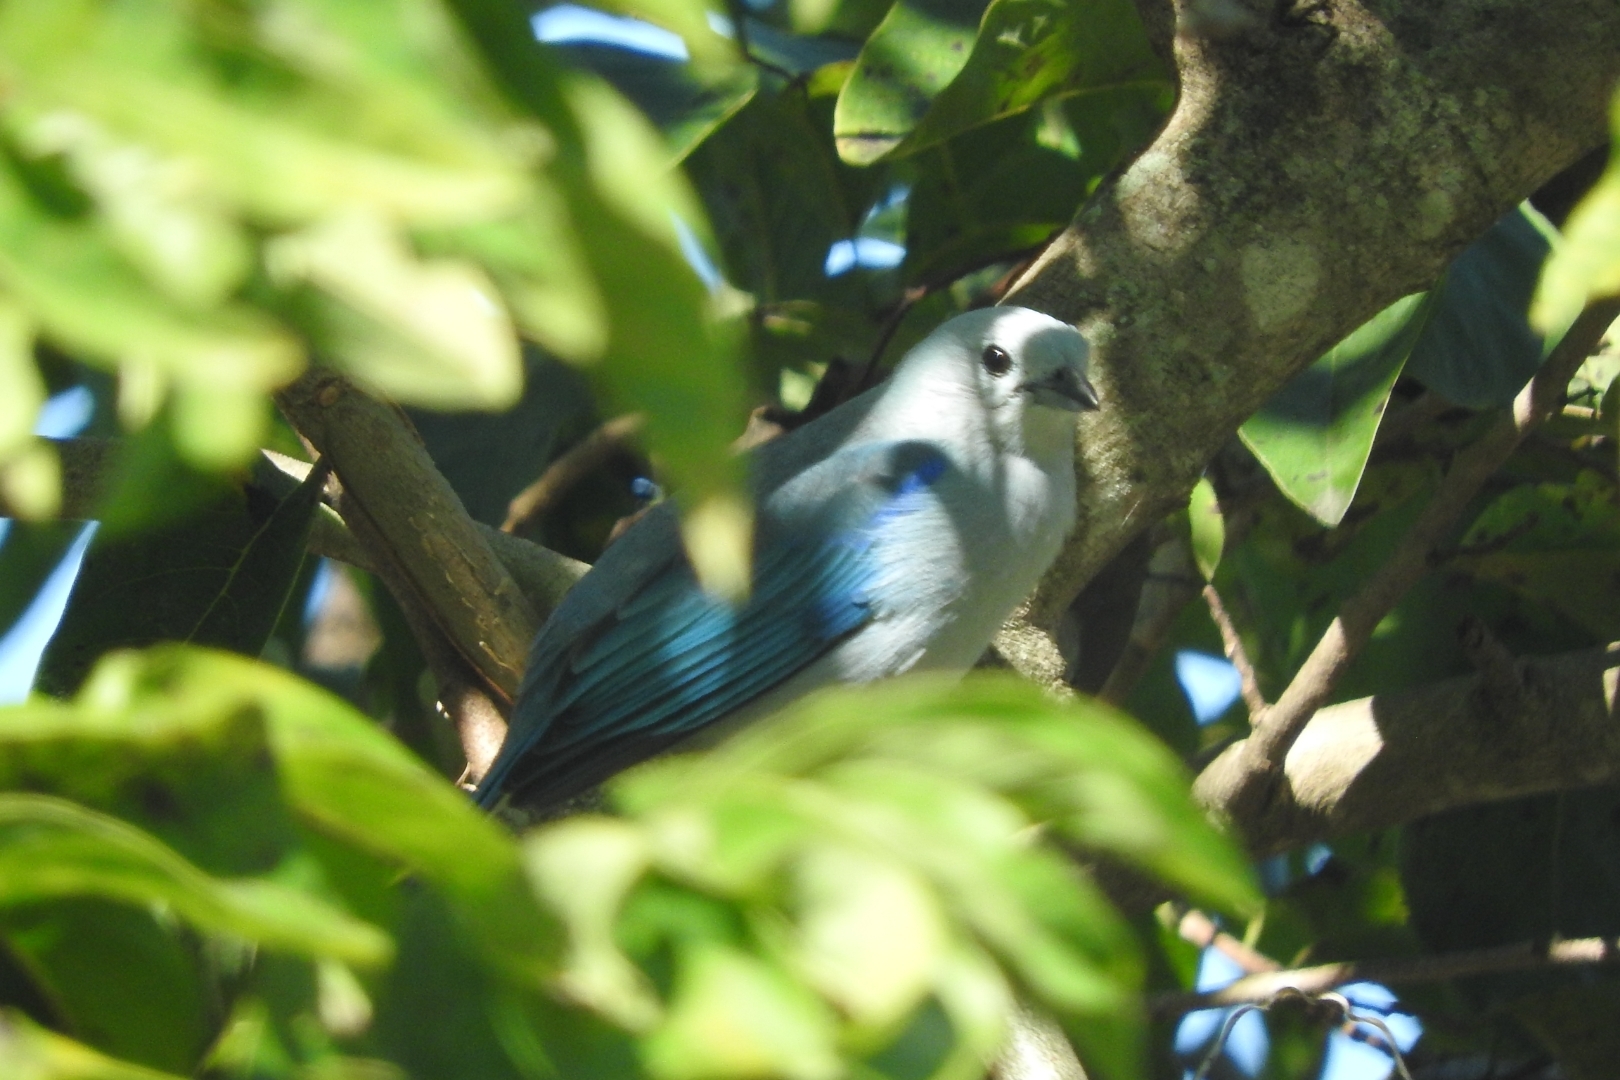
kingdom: Animalia
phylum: Chordata
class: Aves
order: Passeriformes
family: Thraupidae
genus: Thraupis
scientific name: Thraupis episcopus
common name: Blue-grey tanager
